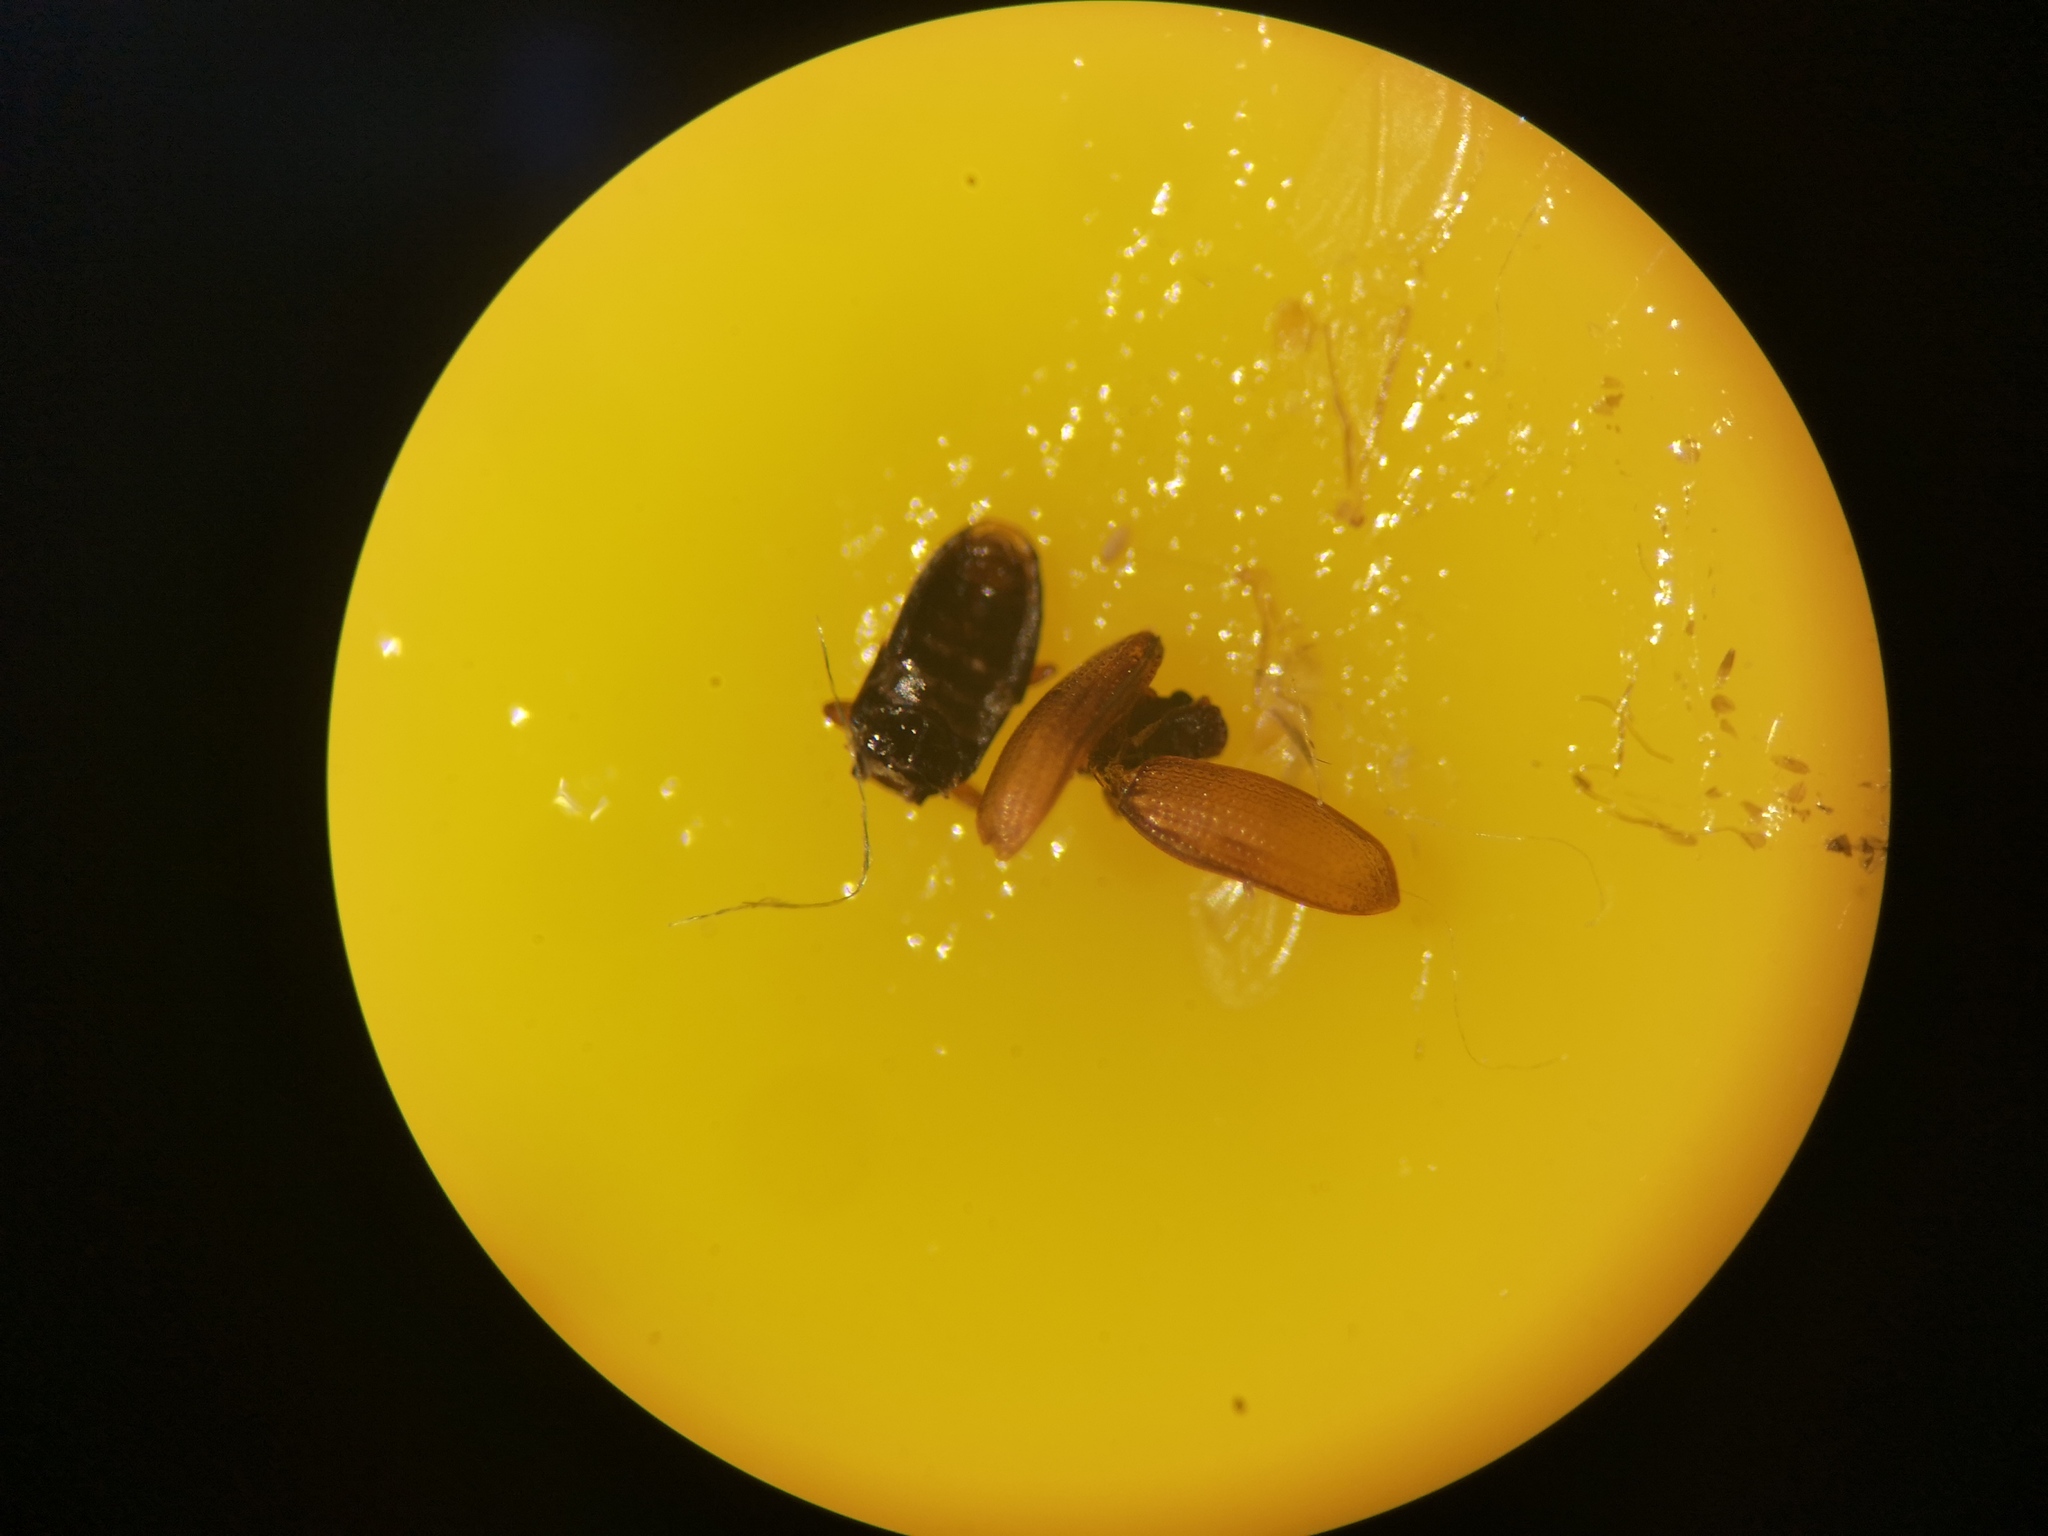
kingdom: Animalia
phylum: Arthropoda
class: Insecta
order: Coleoptera
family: Latridiidae
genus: Enicmus
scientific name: Enicmus transversus
